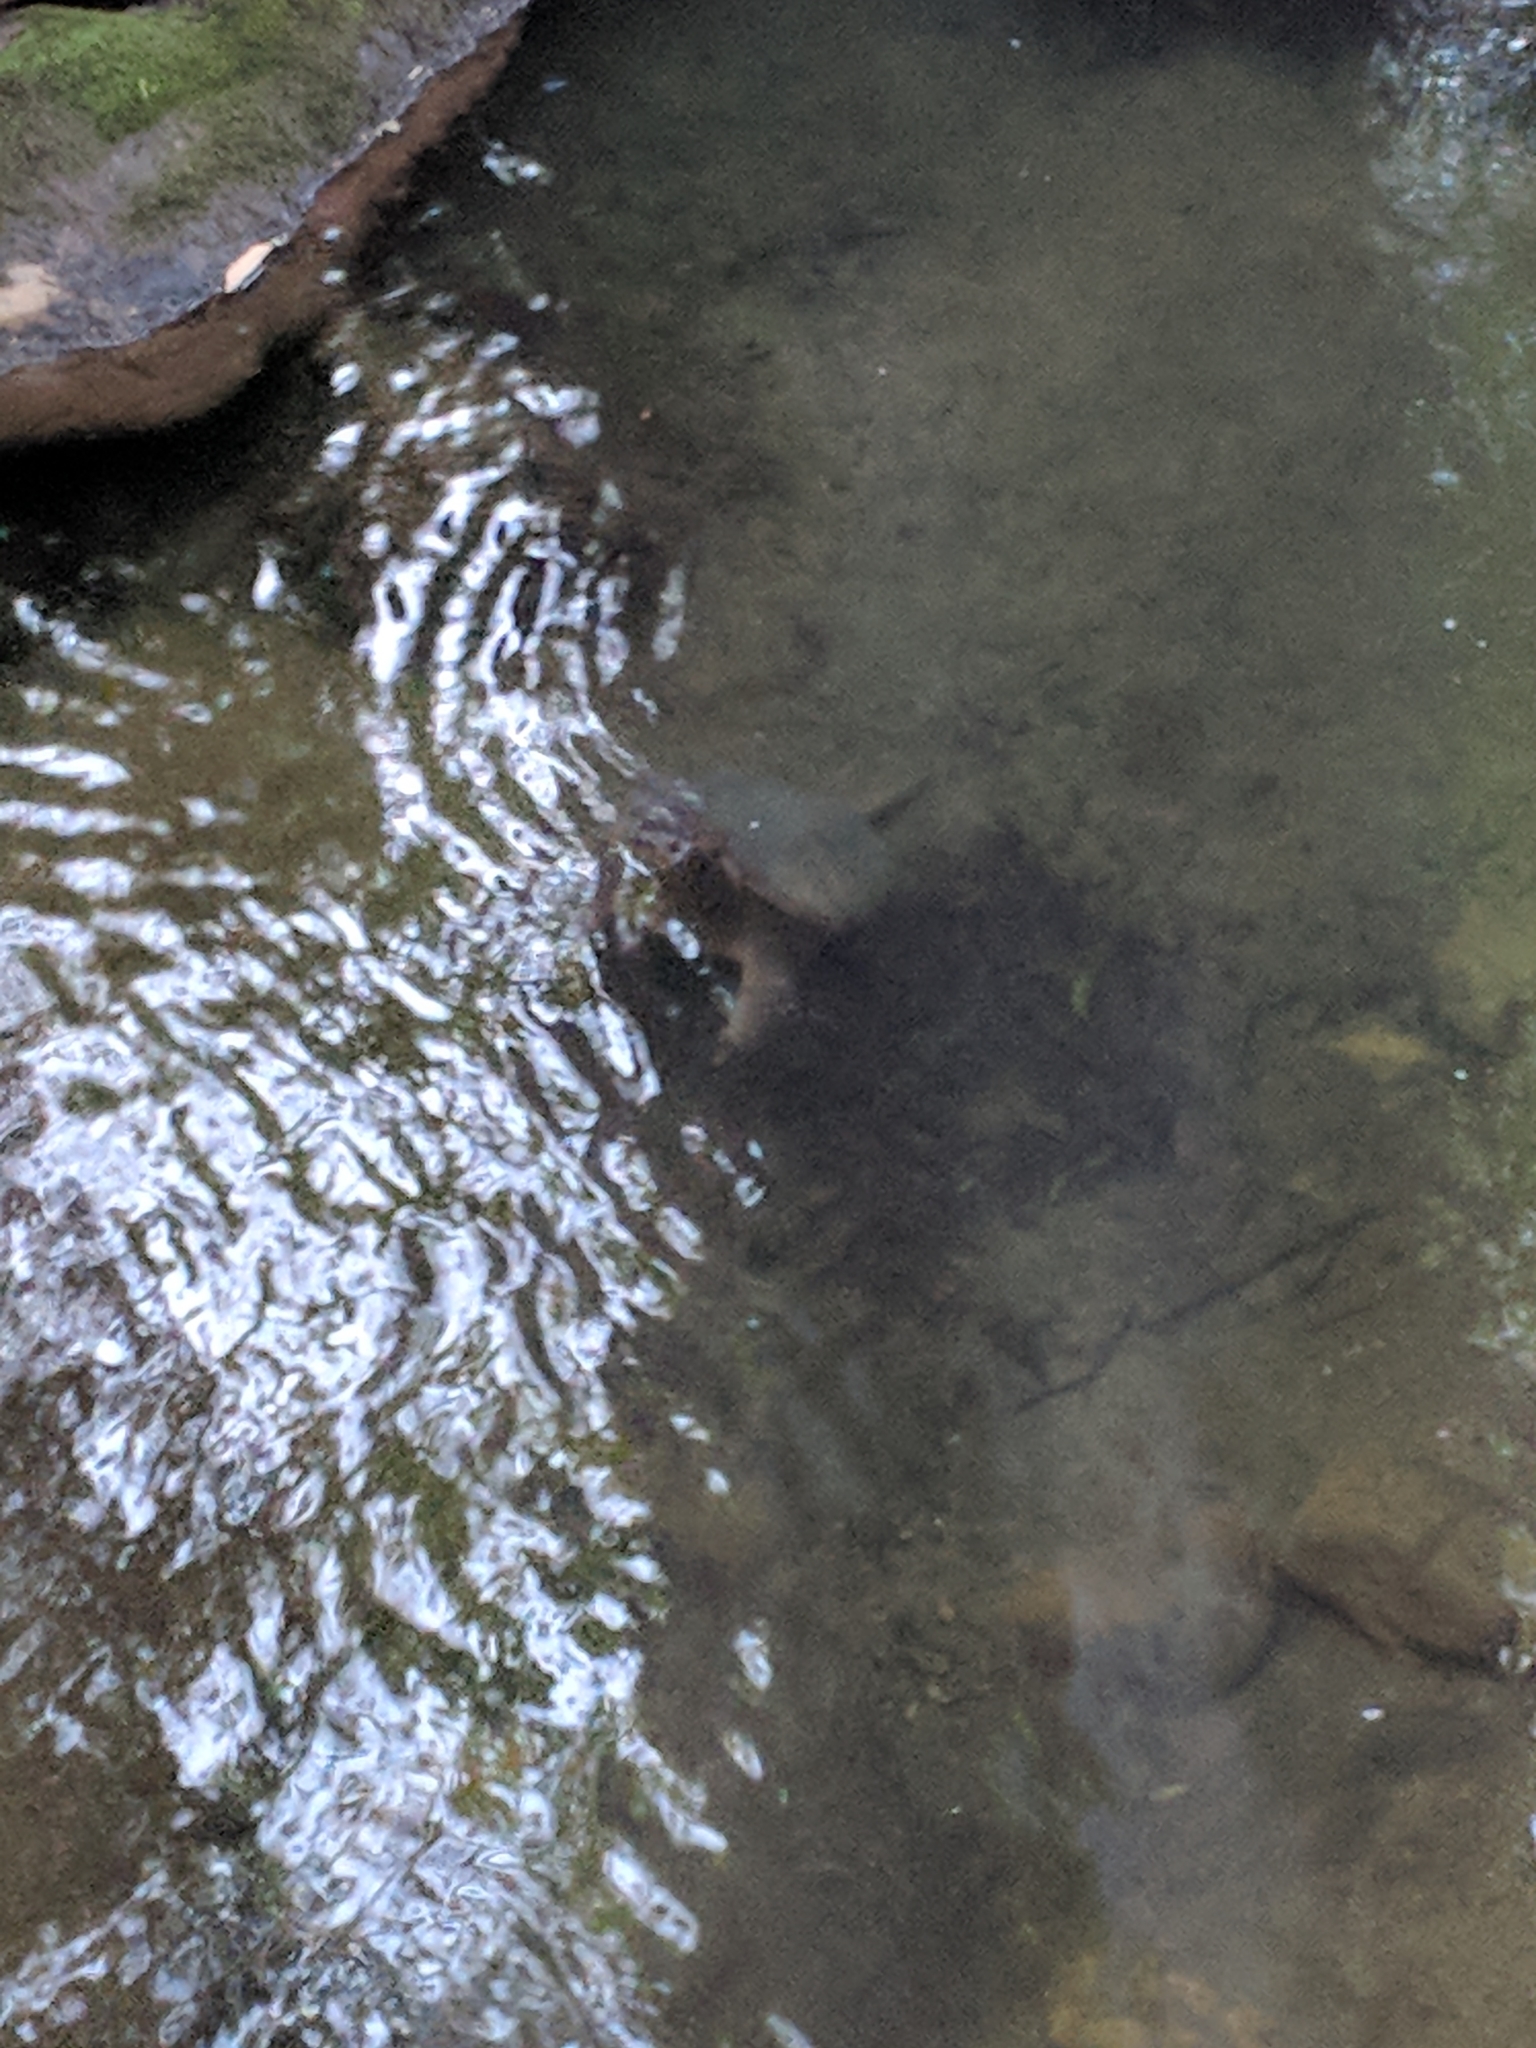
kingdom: Animalia
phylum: Chordata
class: Testudines
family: Chelydridae
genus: Chelydra
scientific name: Chelydra serpentina
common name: Common snapping turtle
